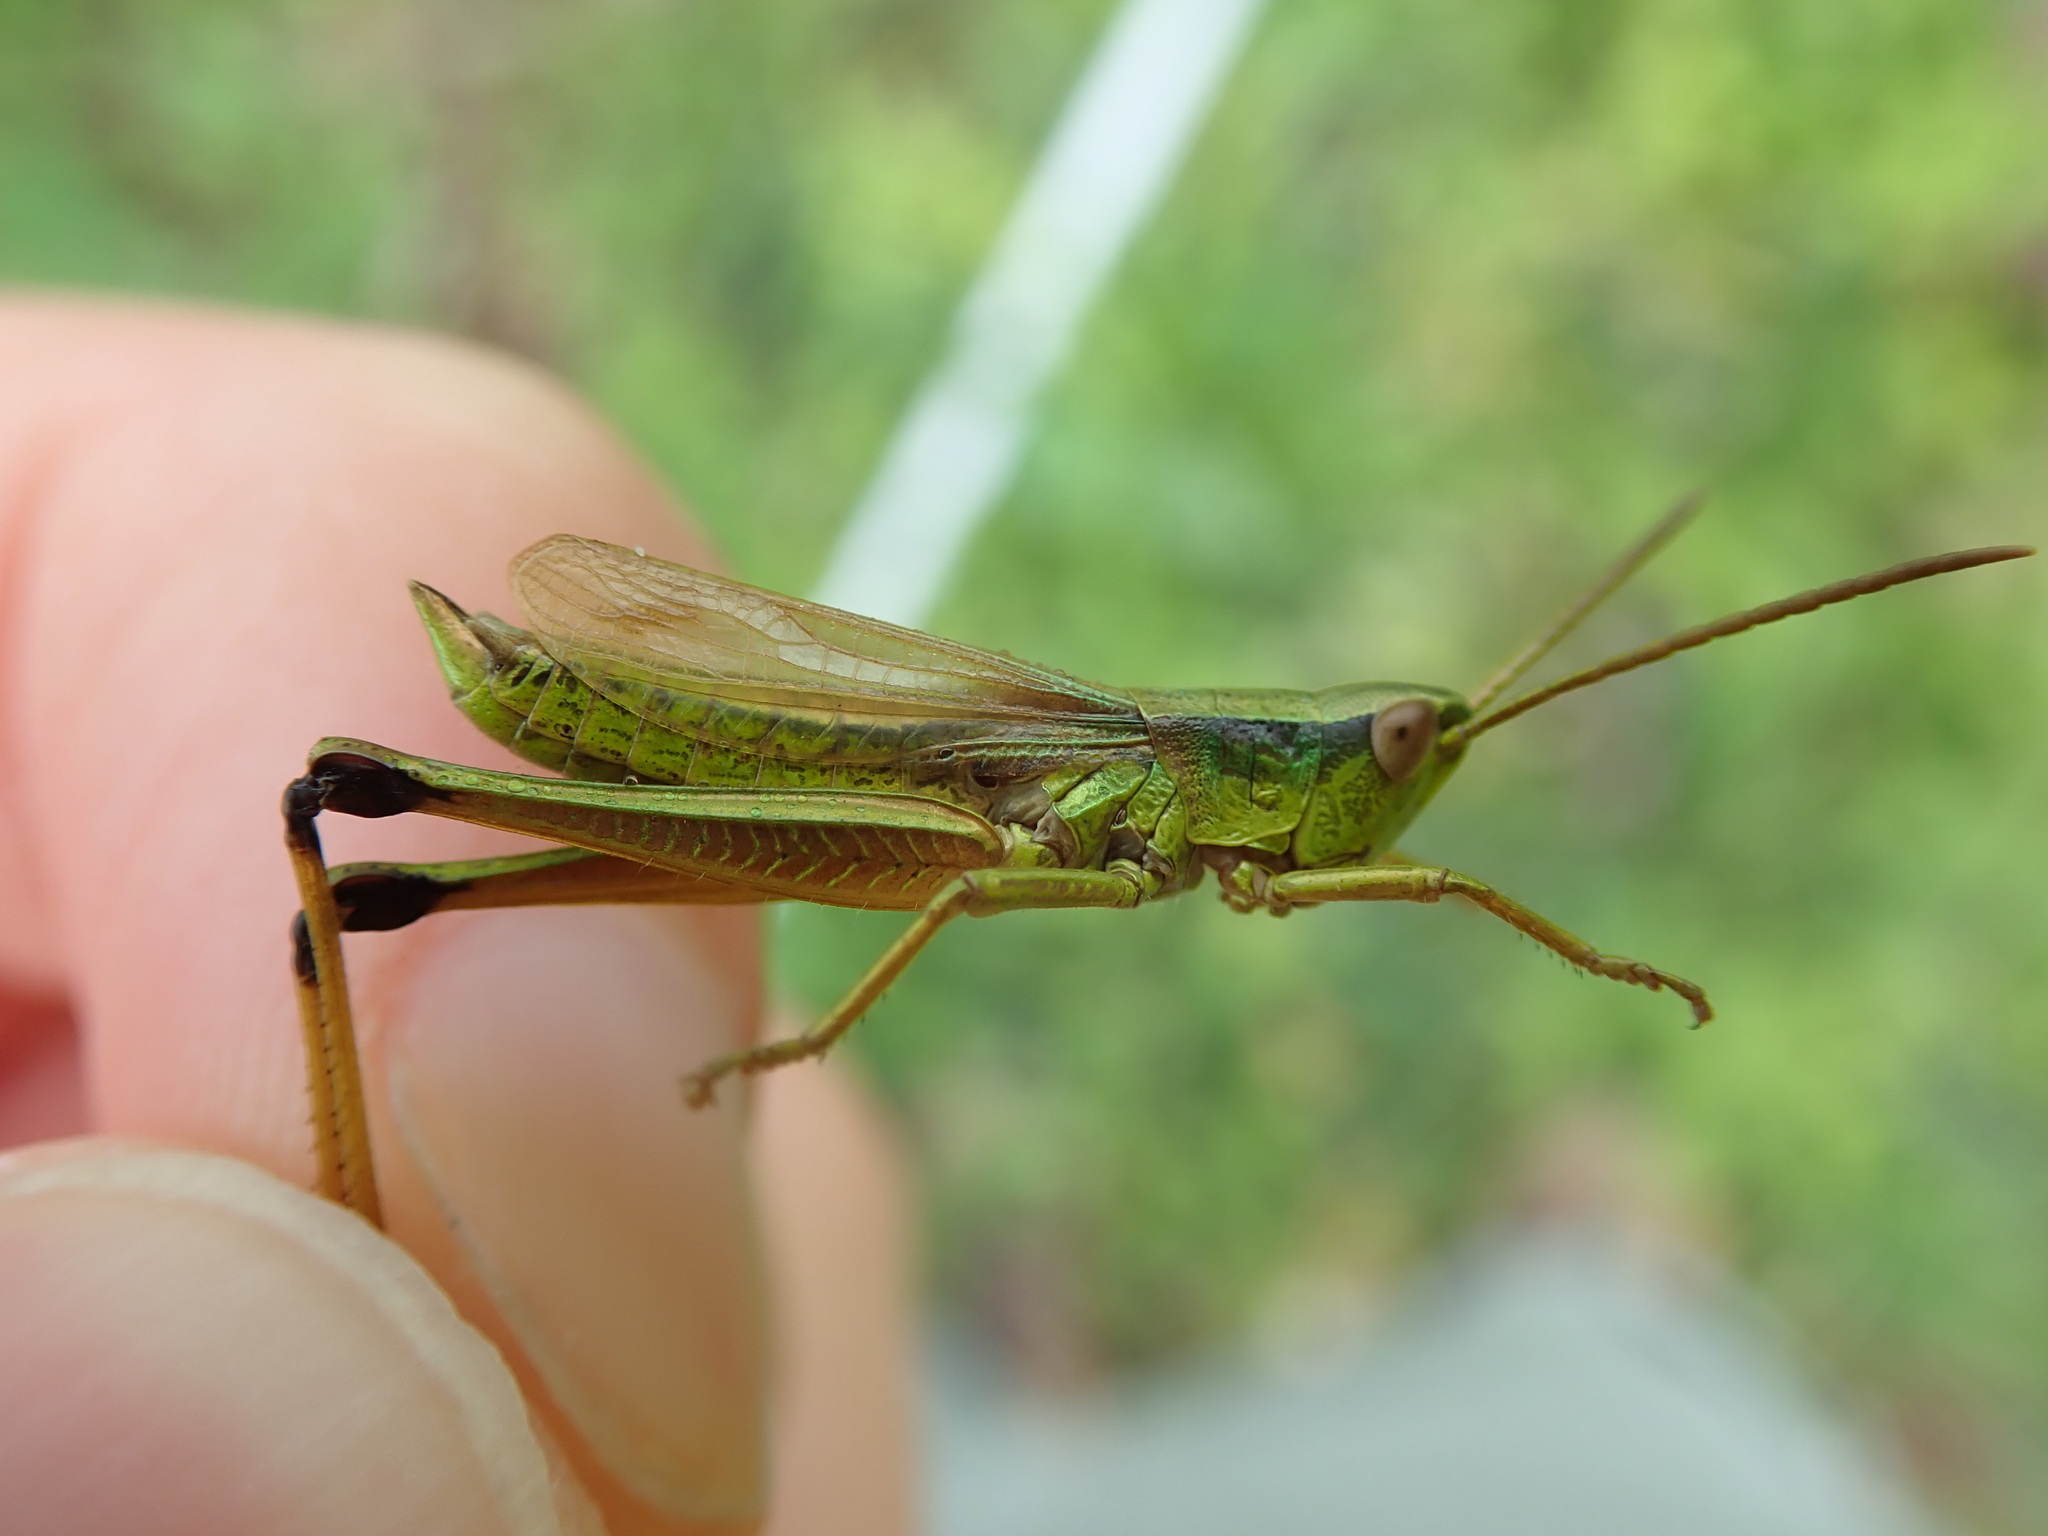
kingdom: Animalia
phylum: Arthropoda
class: Insecta
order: Orthoptera
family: Acrididae
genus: Chrysochraon
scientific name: Chrysochraon dispar
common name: Large gold grasshopper
